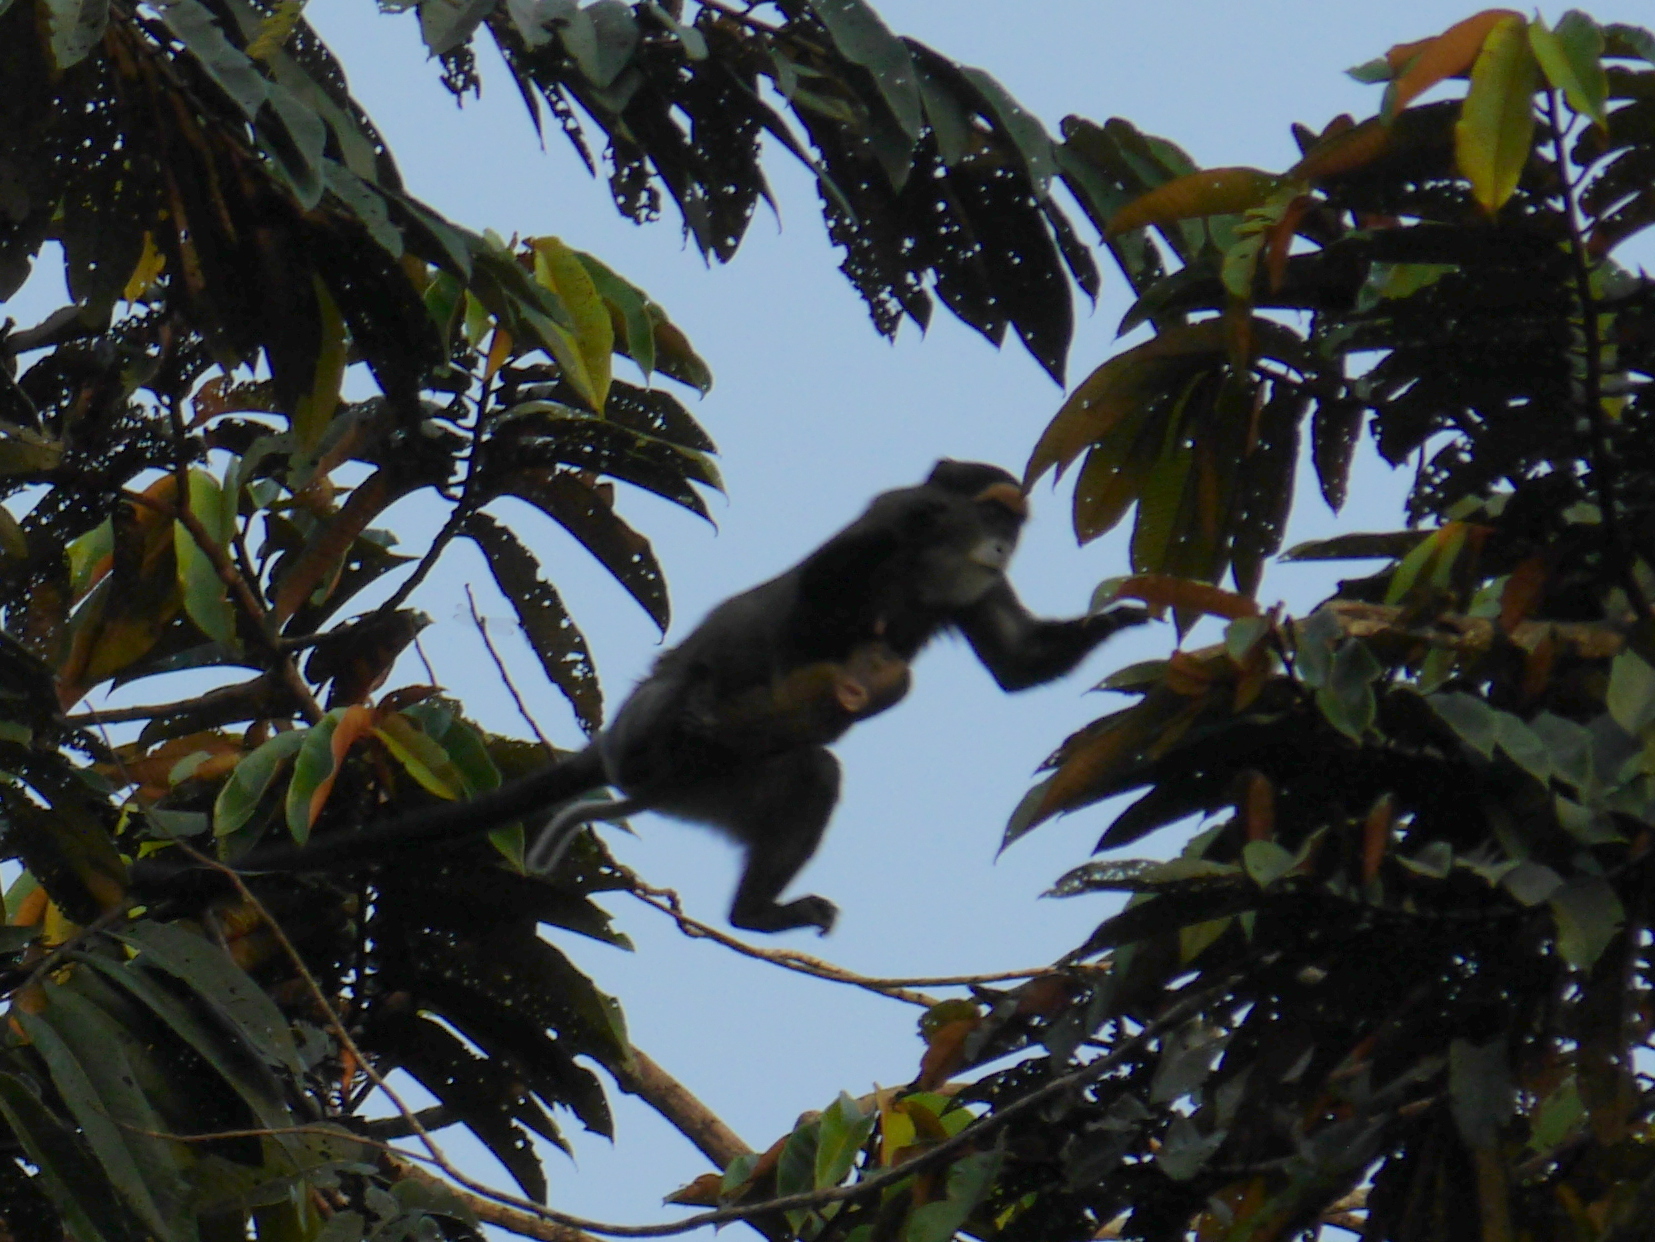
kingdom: Animalia
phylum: Chordata
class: Mammalia
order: Primates
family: Cercopithecidae
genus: Cercopithecus
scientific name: Cercopithecus neglectus
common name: De brazza's guenon
